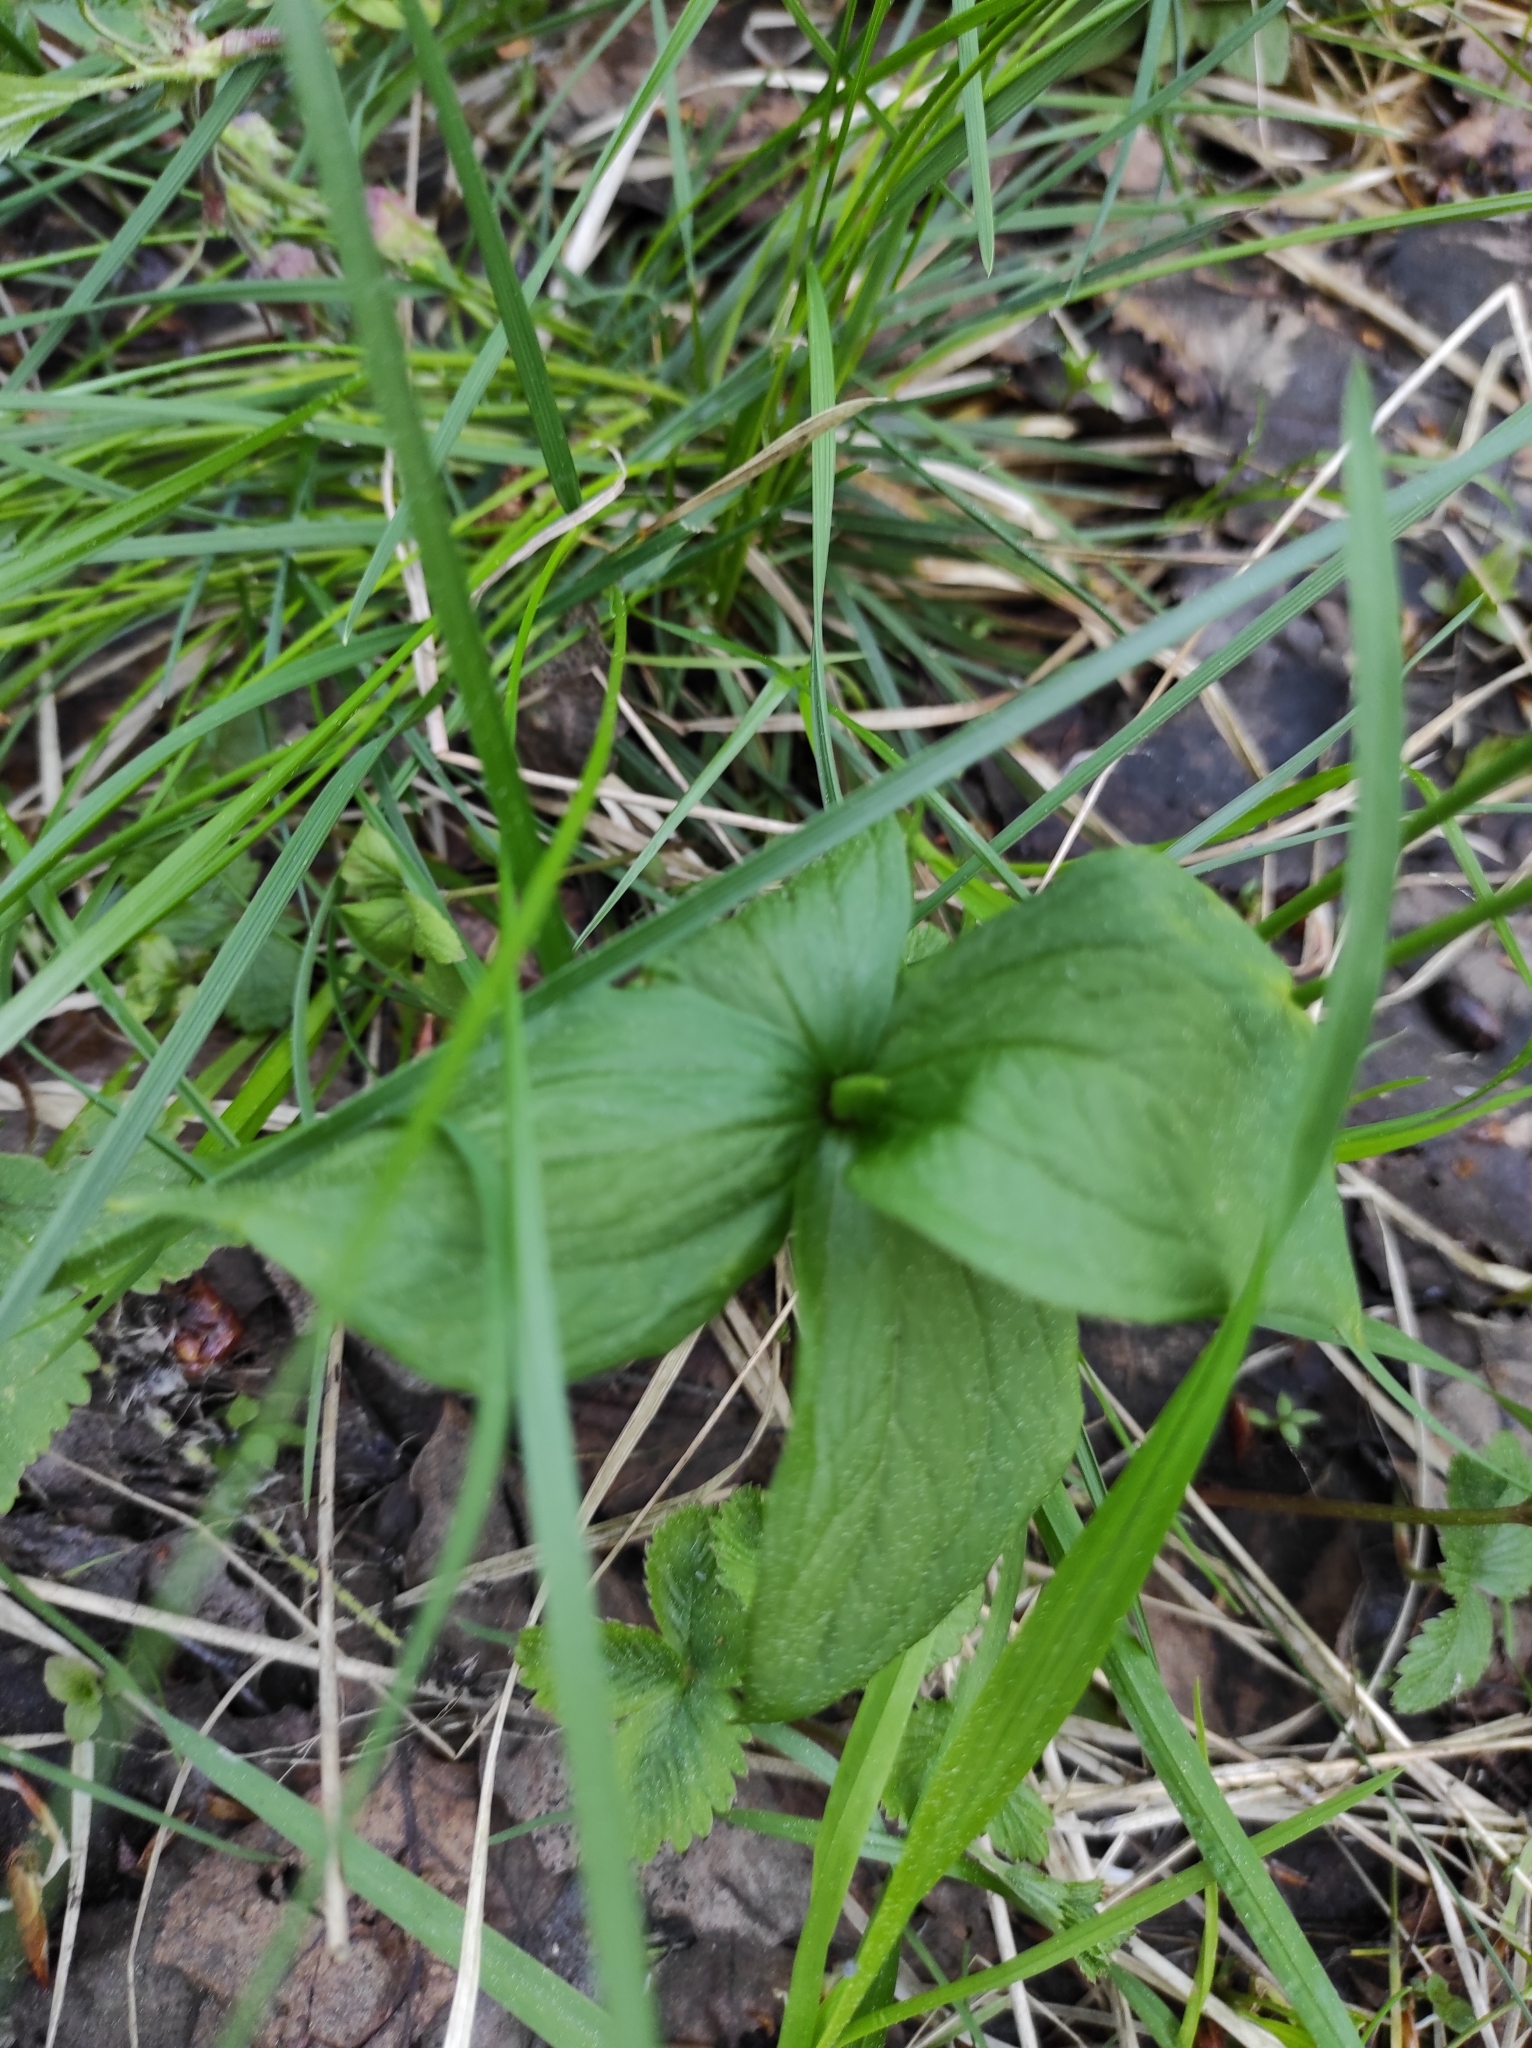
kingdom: Plantae
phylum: Tracheophyta
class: Liliopsida
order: Liliales
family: Melanthiaceae
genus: Paris
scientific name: Paris quadrifolia
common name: Herb-paris
